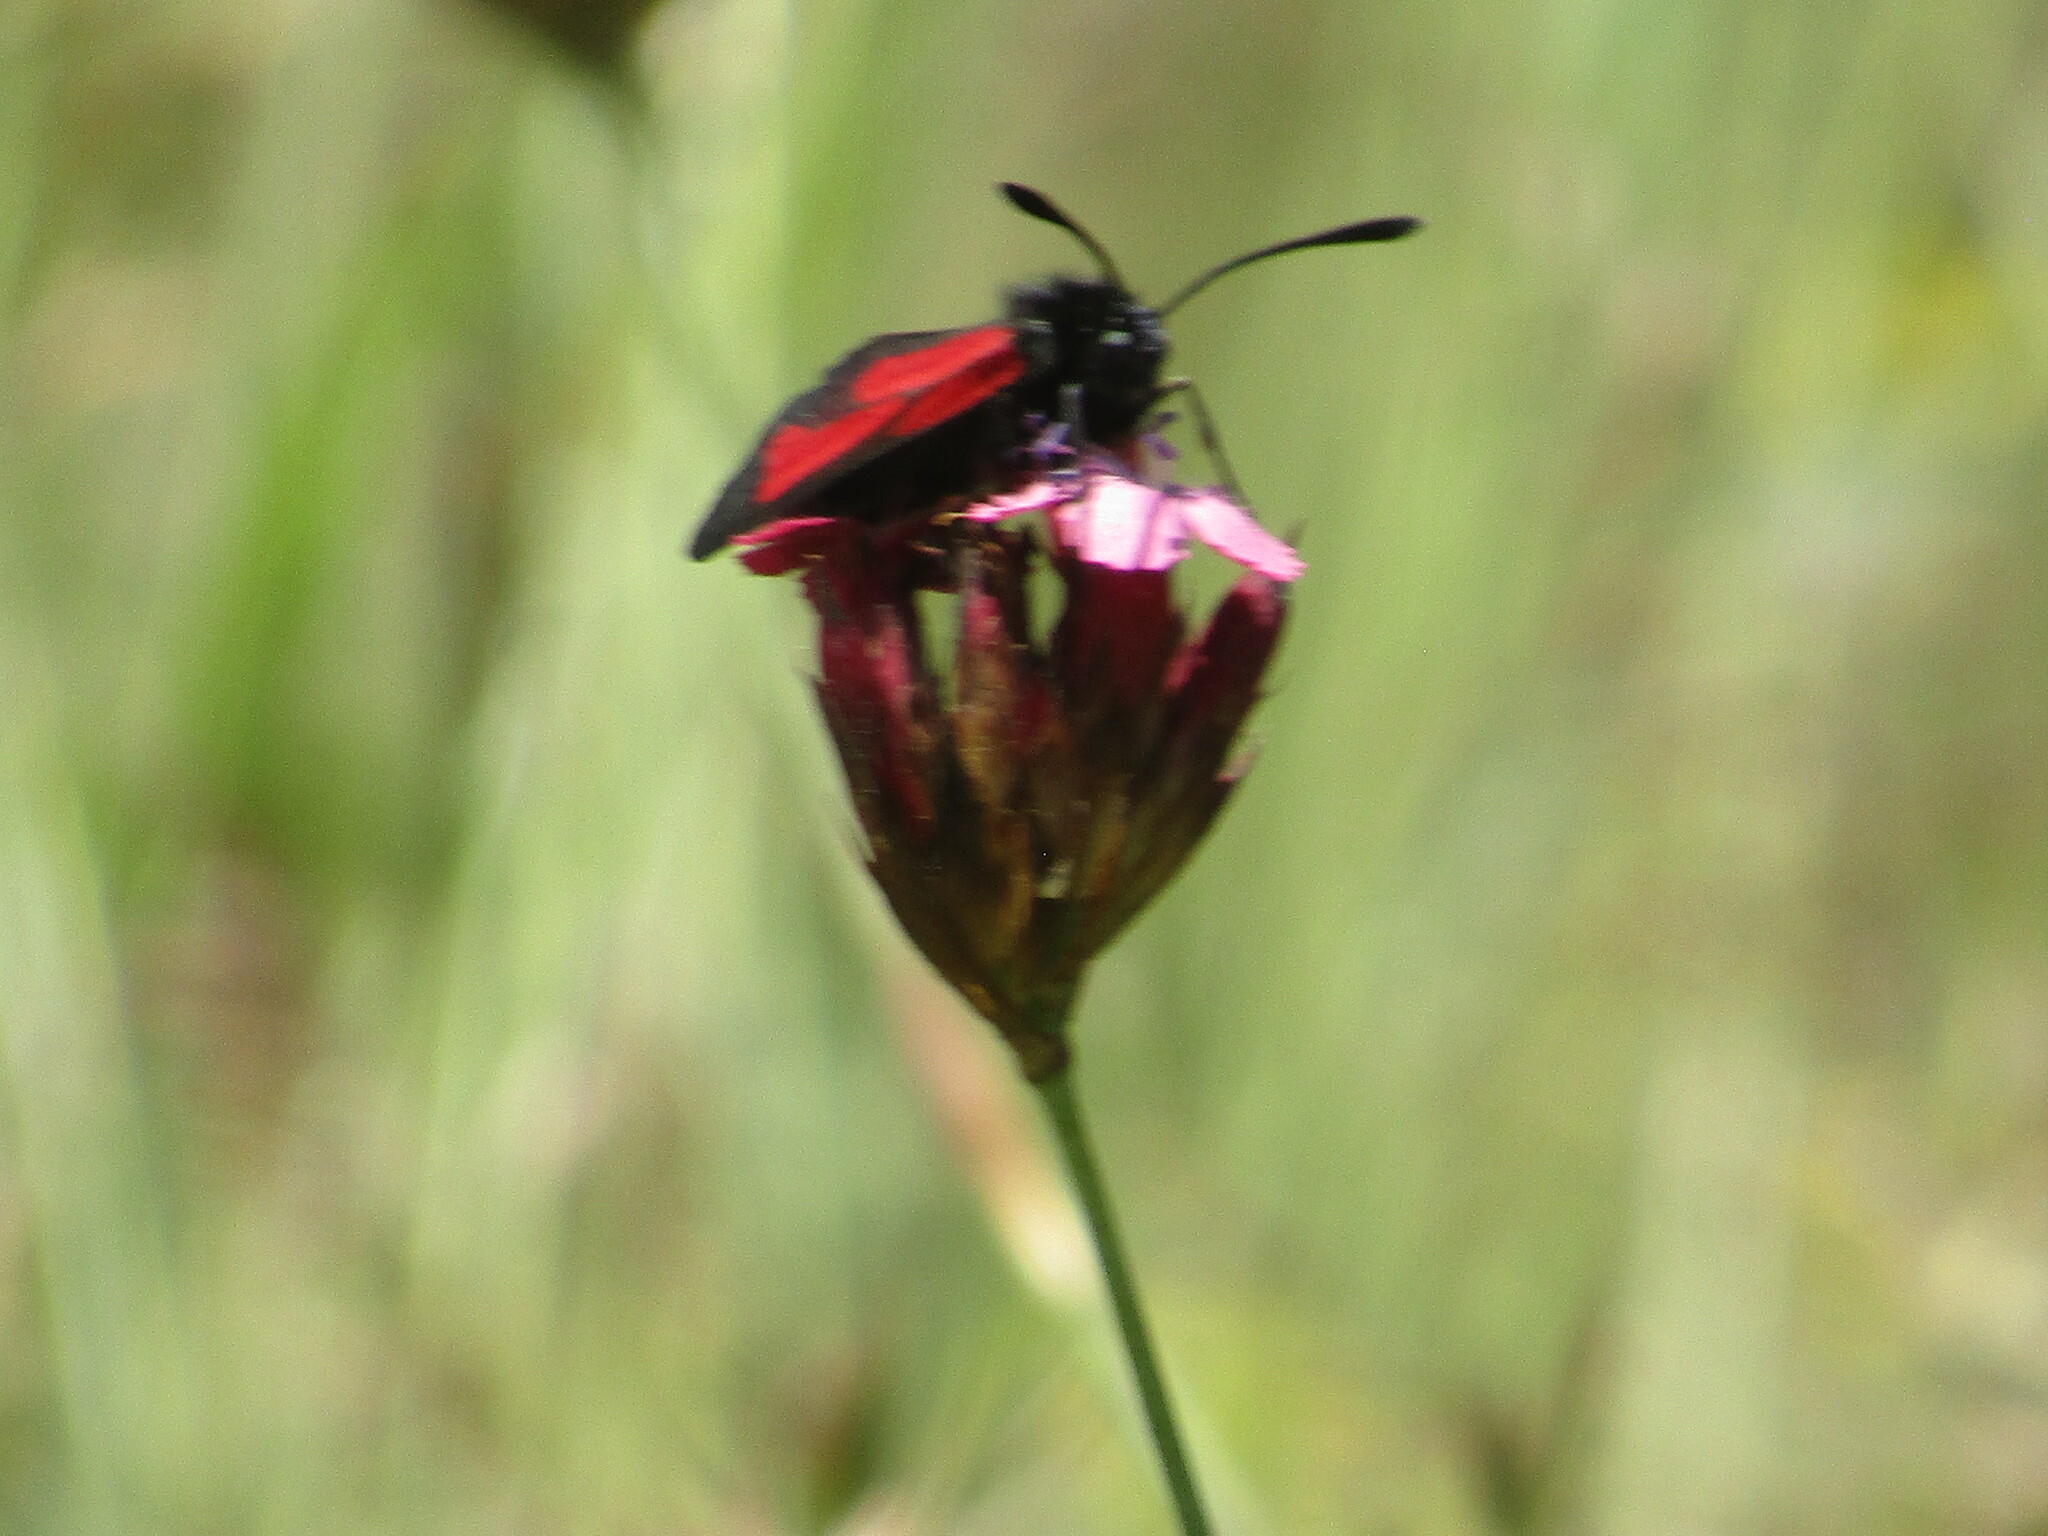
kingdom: Animalia
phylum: Arthropoda
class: Insecta
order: Lepidoptera
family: Zygaenidae
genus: Zygaena
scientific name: Zygaena
